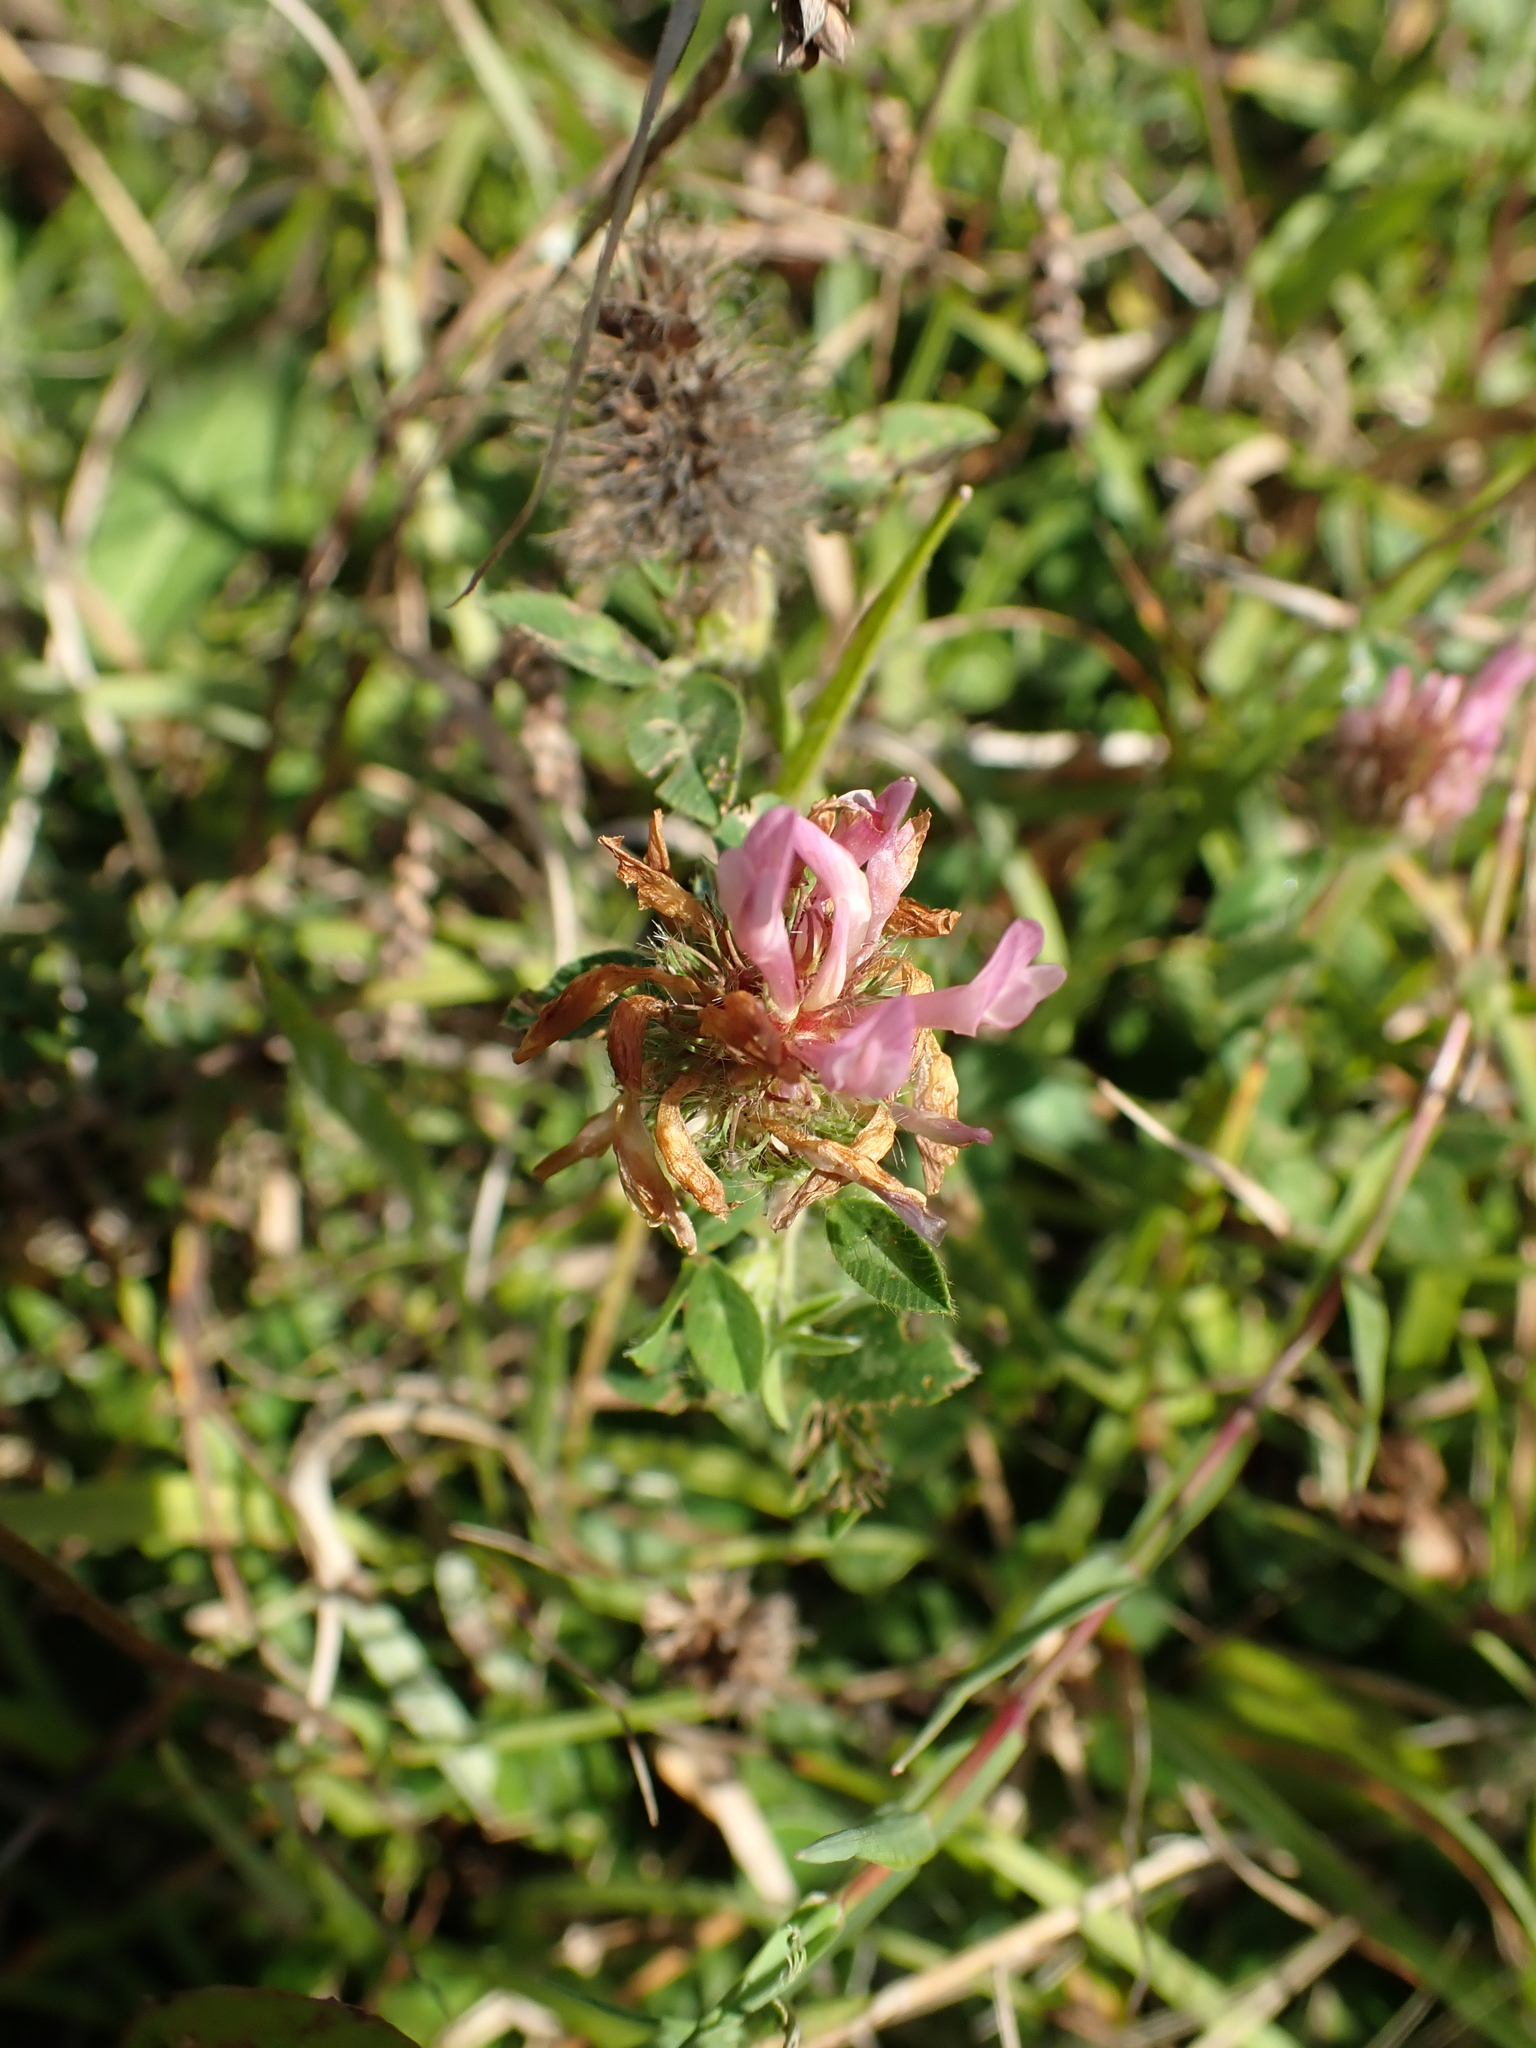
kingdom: Plantae
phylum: Tracheophyta
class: Magnoliopsida
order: Fabales
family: Fabaceae
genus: Trifolium
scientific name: Trifolium pratense
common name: Red clover
